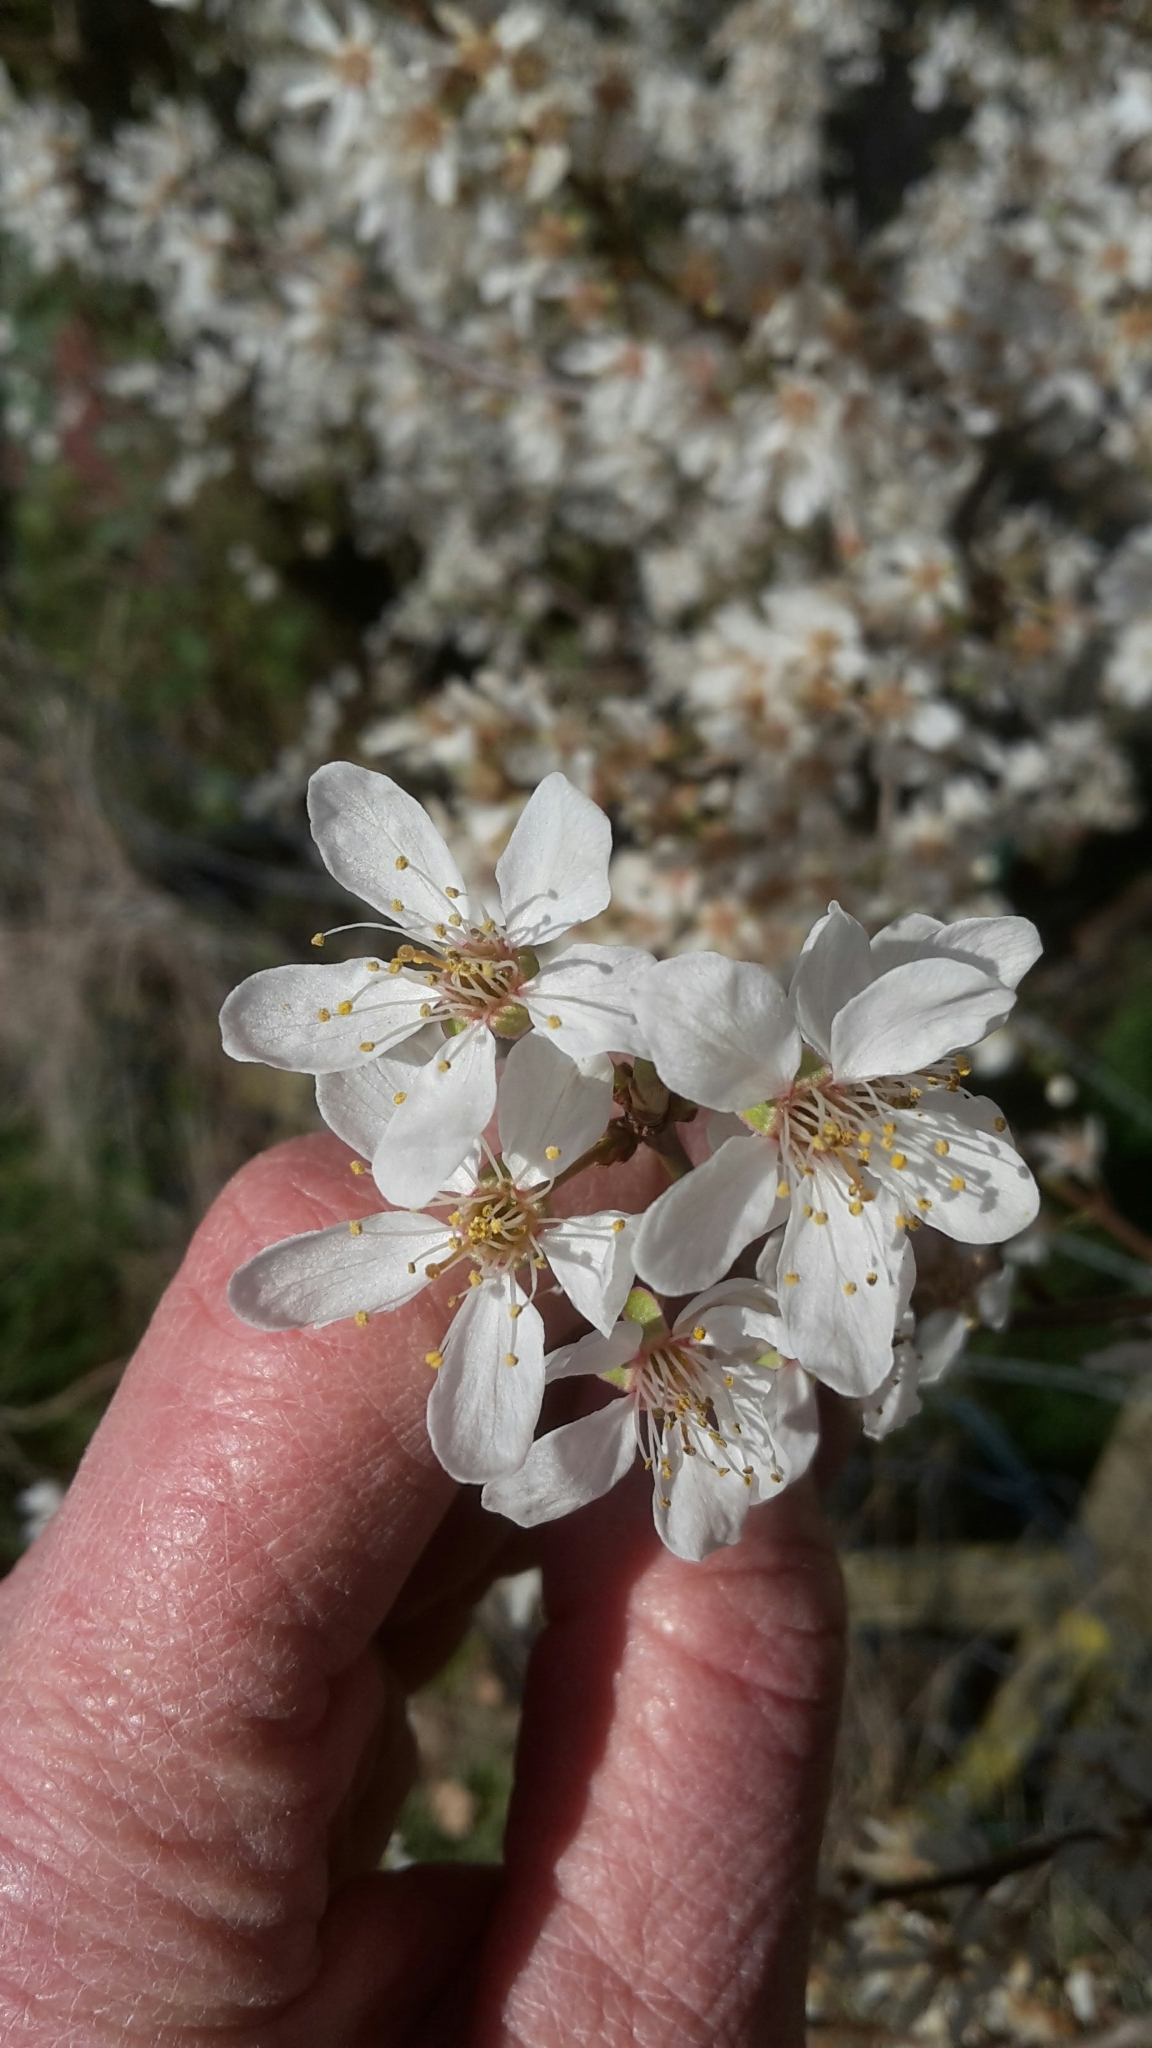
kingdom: Plantae
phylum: Tracheophyta
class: Magnoliopsida
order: Rosales
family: Rosaceae
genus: Prunus
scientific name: Prunus cerasifera
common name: Cherry plum
